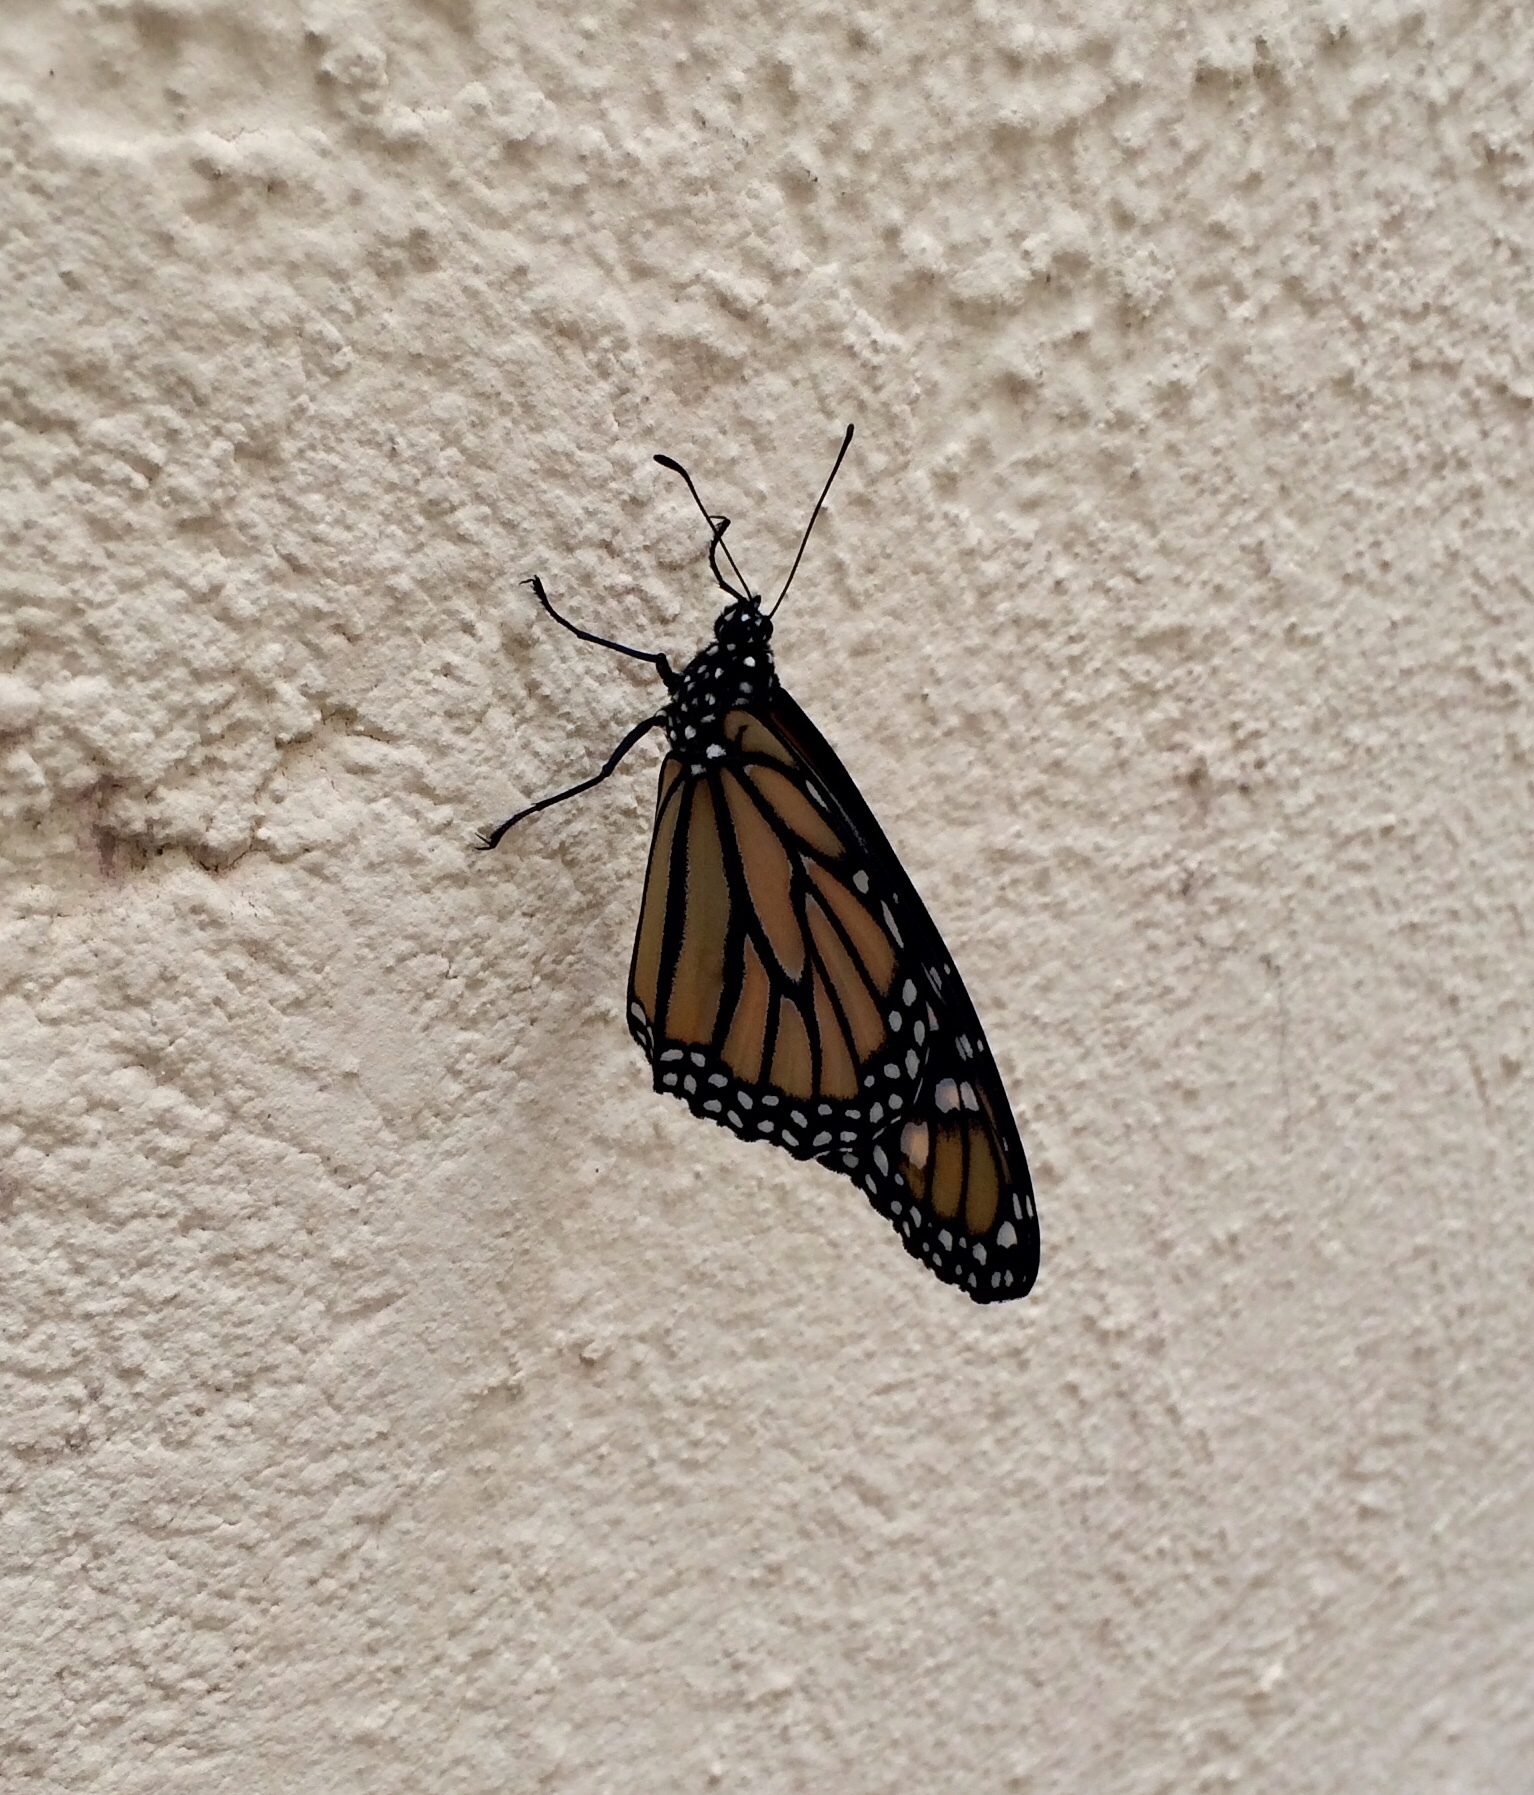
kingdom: Animalia
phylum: Arthropoda
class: Insecta
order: Lepidoptera
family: Nymphalidae
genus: Danaus
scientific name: Danaus plexippus
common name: Monarch
